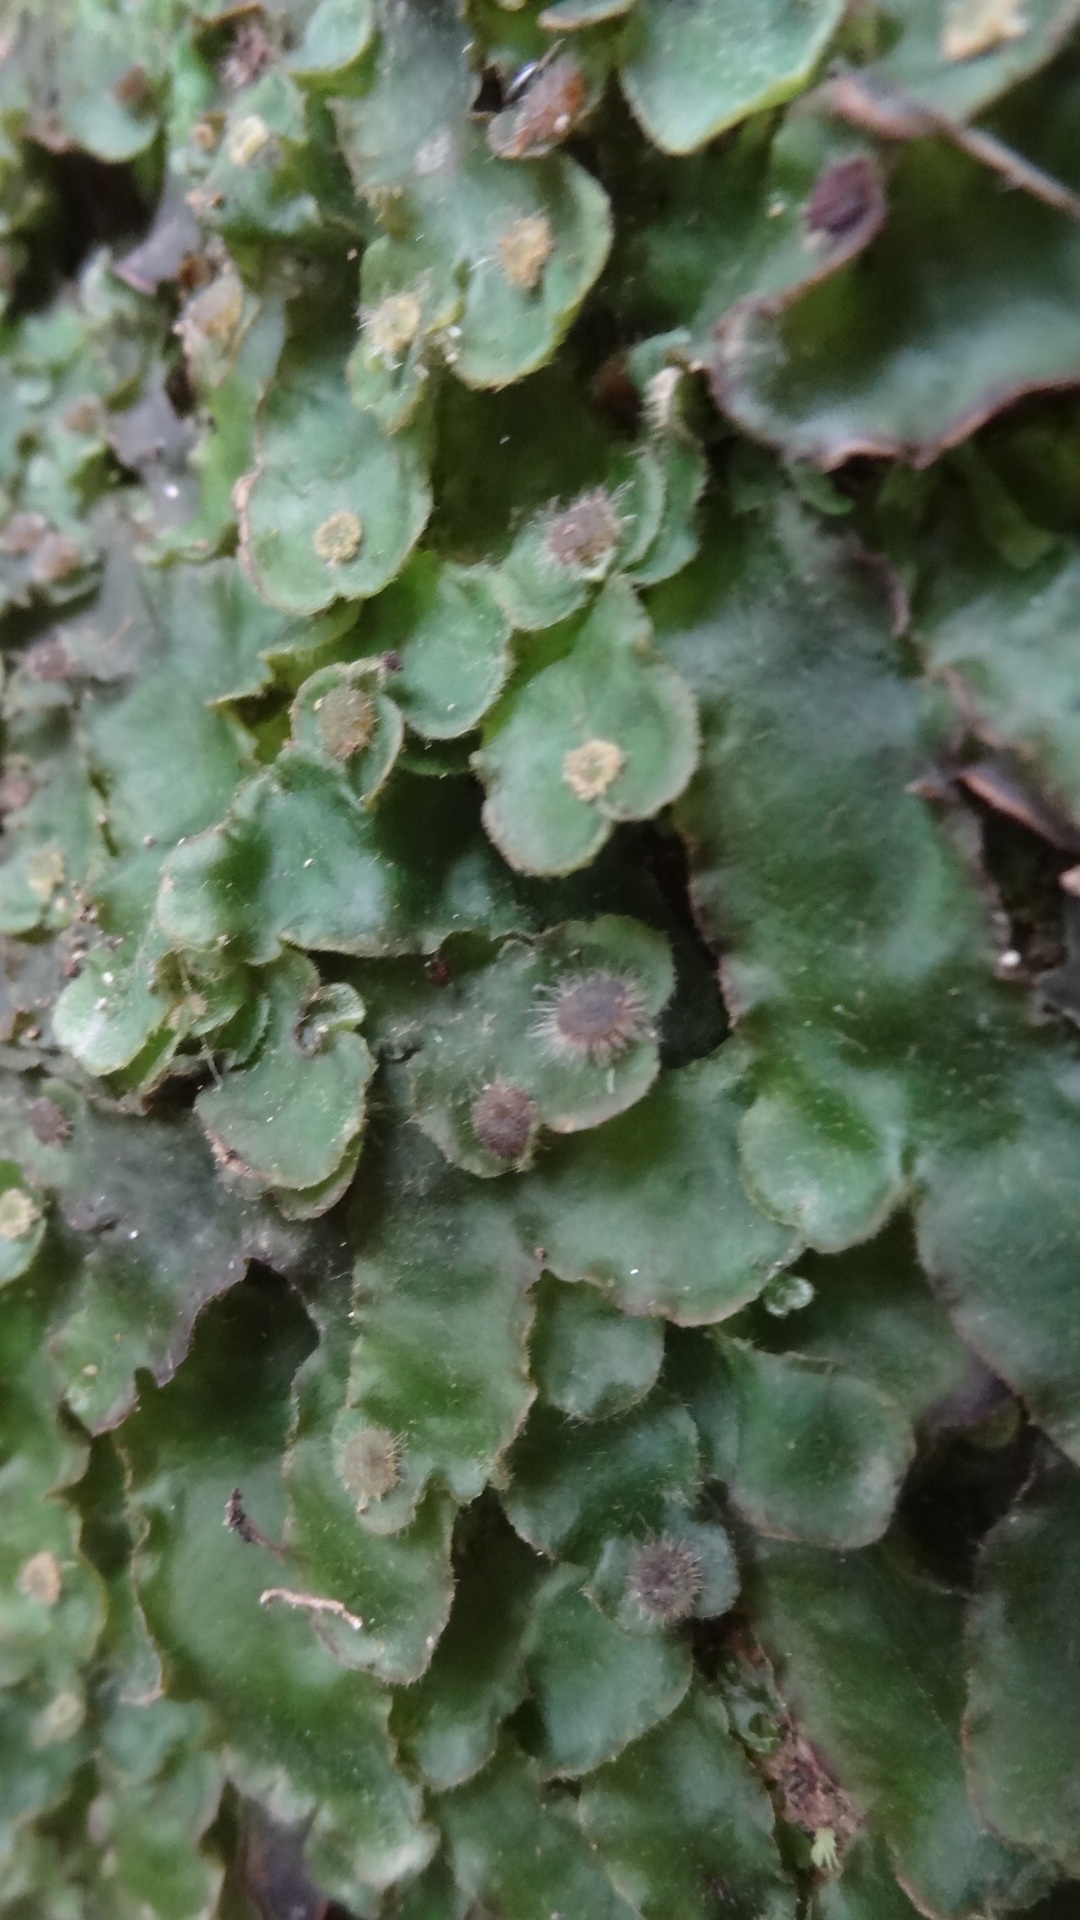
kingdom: Plantae
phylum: Marchantiophyta
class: Marchantiopsida
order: Marchantiales
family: Dumortieraceae
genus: Dumortiera
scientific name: Dumortiera hirsuta
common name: Dumortier's liverwort
